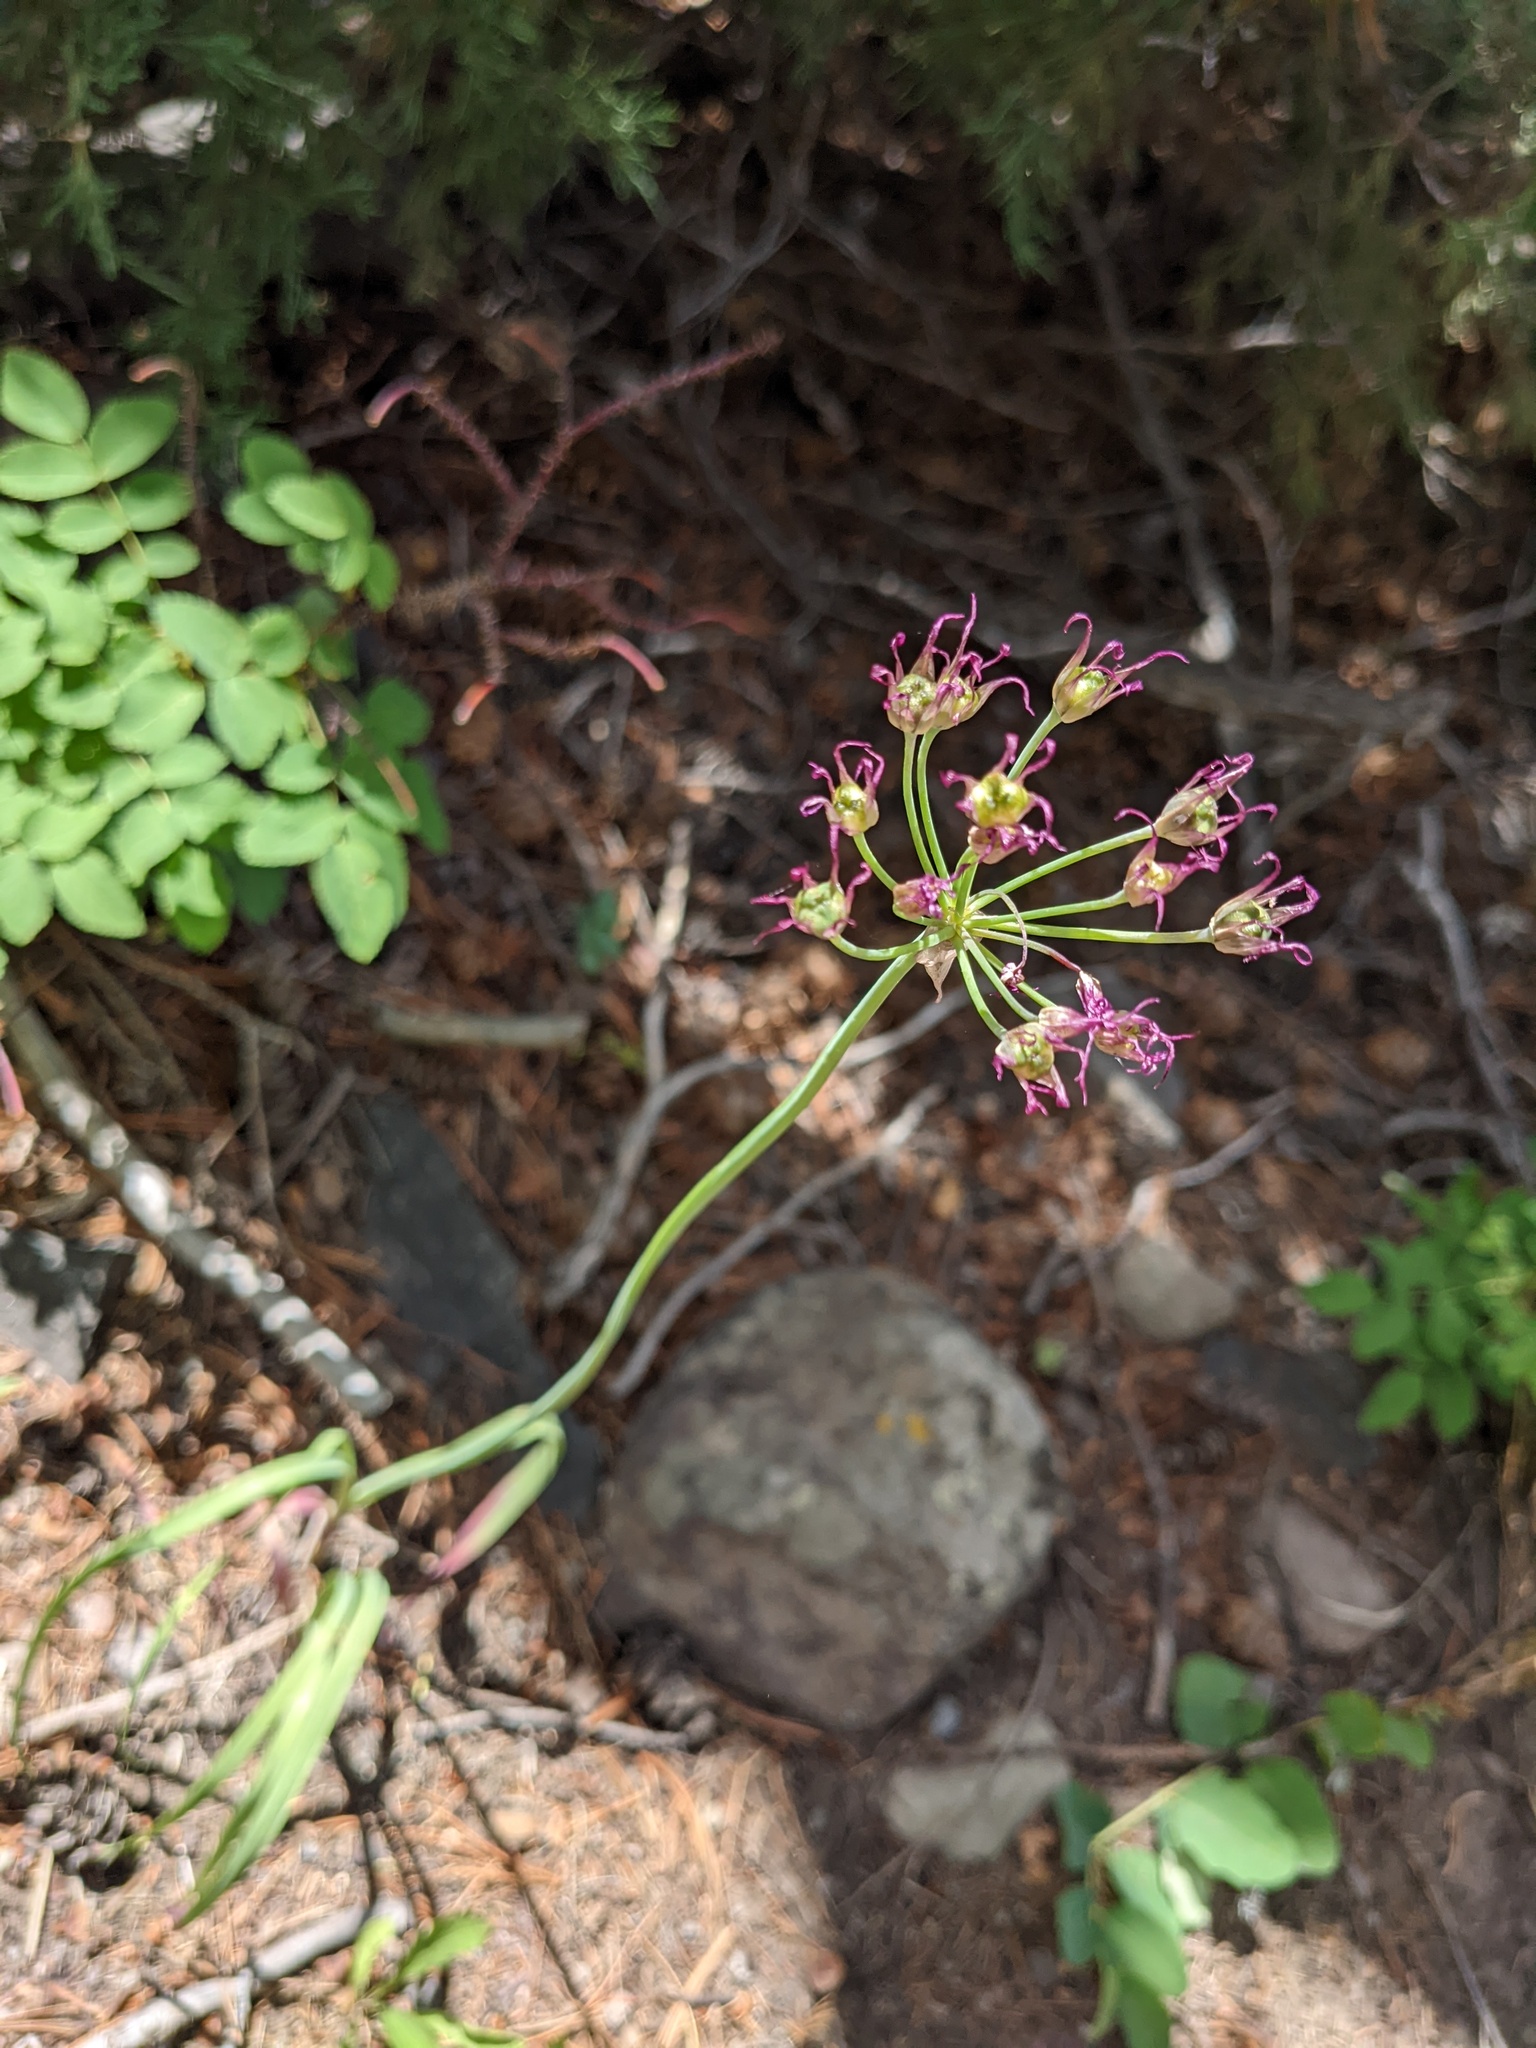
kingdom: Plantae
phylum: Tracheophyta
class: Liliopsida
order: Asparagales
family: Amaryllidaceae
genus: Allium
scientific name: Allium brevistylum
